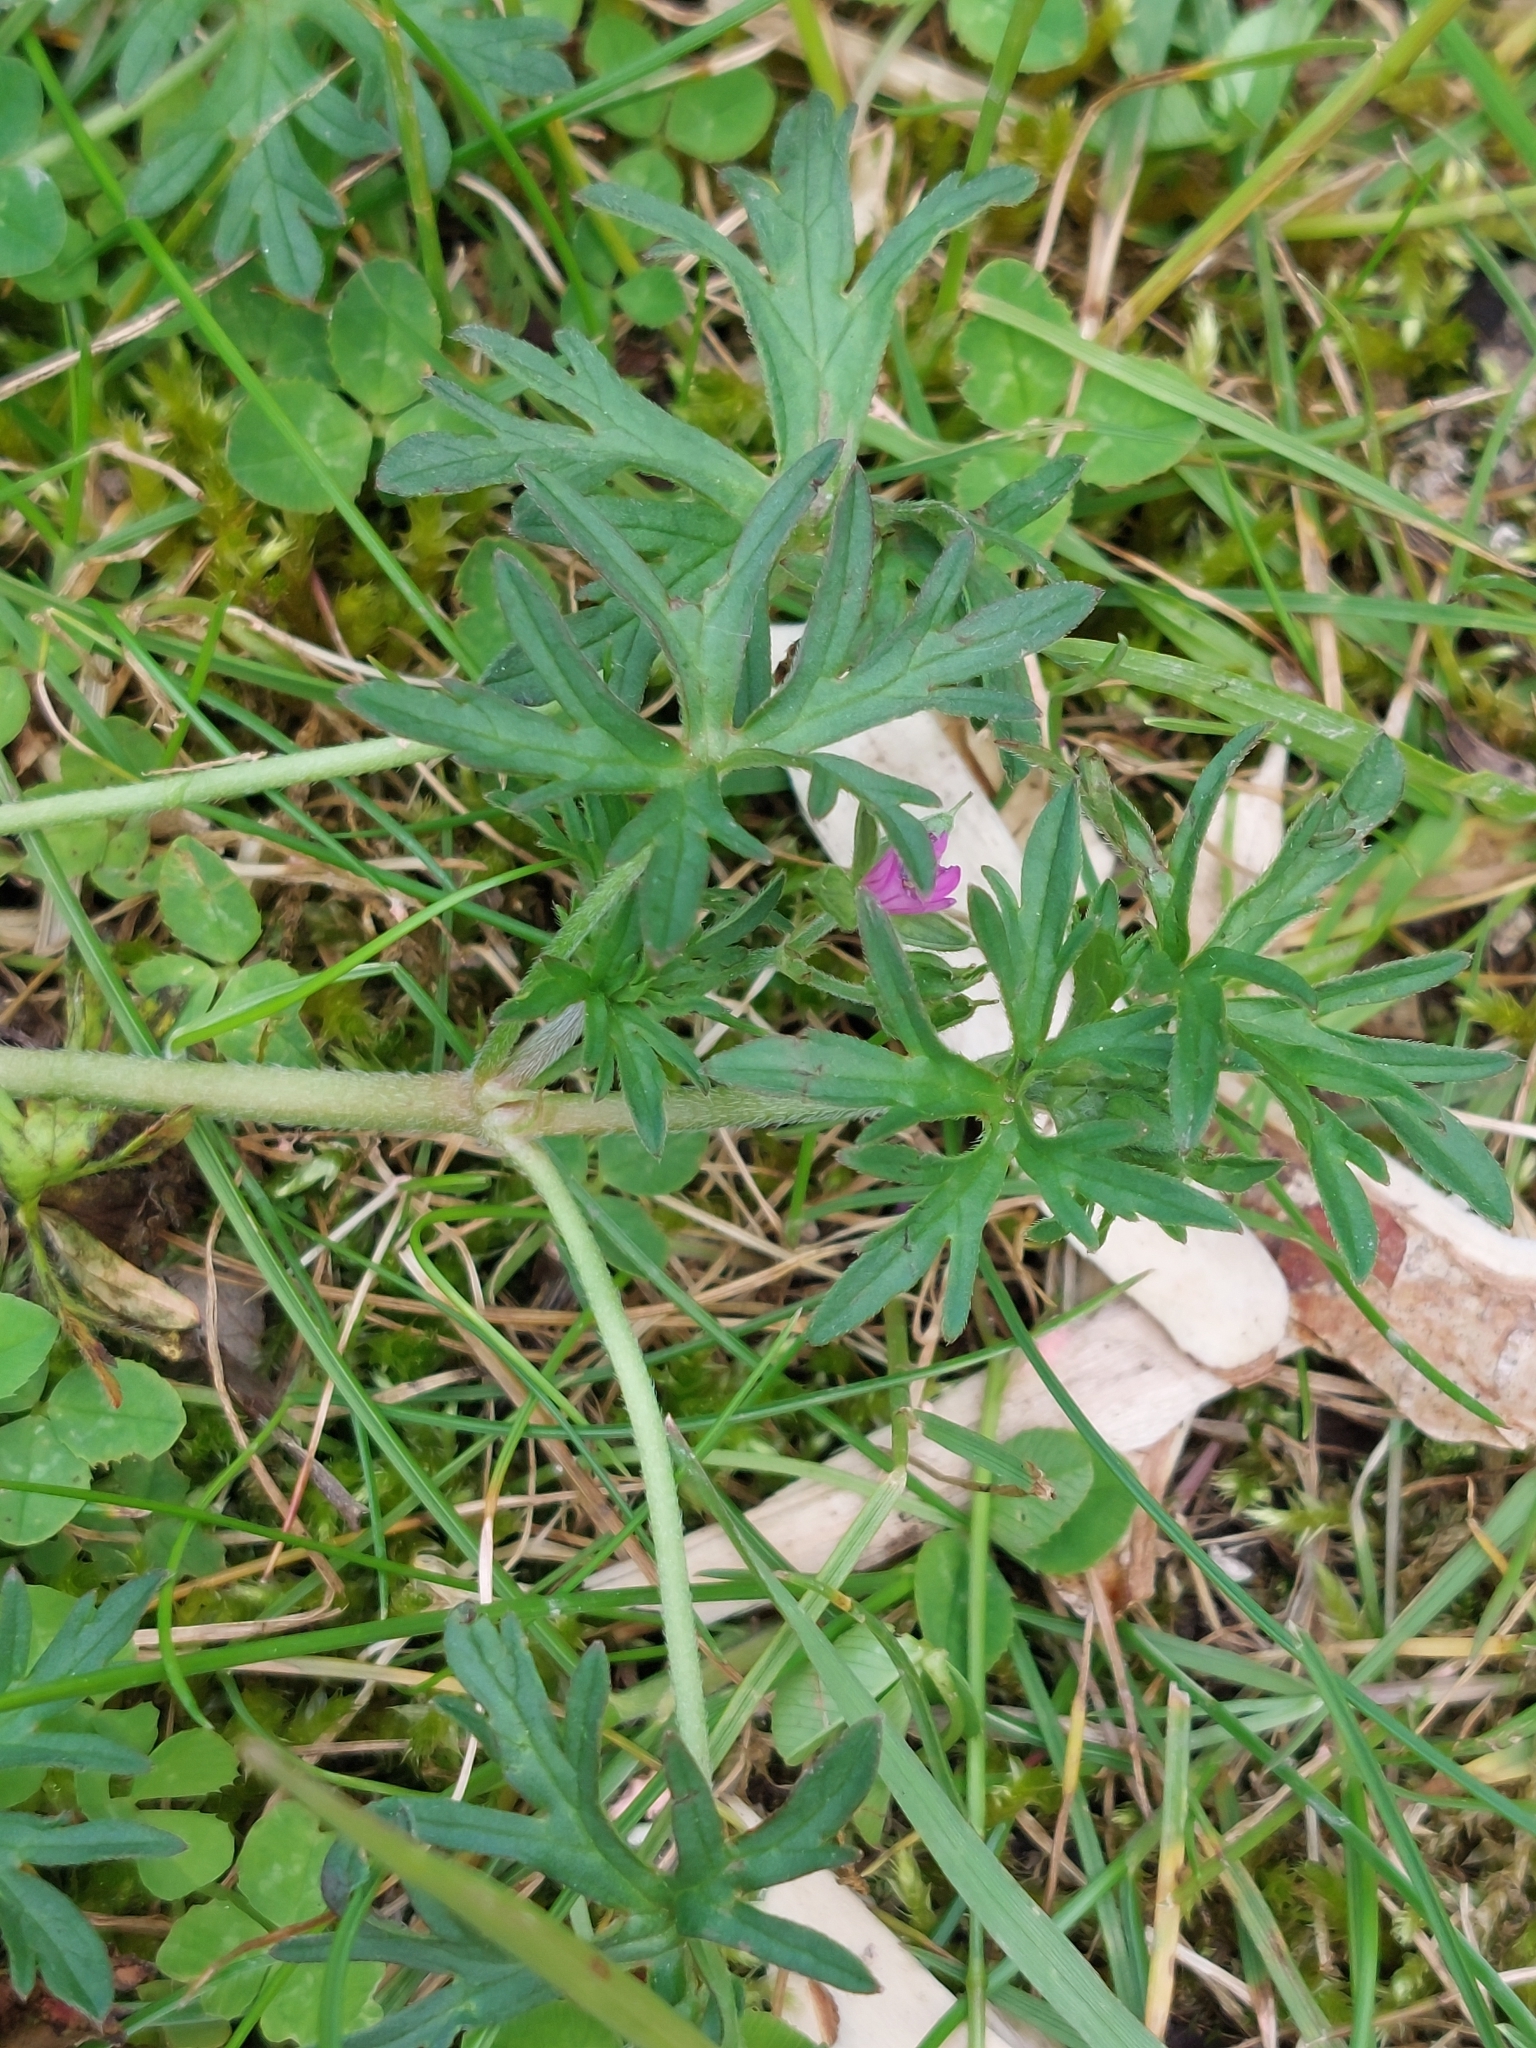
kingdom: Plantae
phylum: Tracheophyta
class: Magnoliopsida
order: Geraniales
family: Geraniaceae
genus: Geranium
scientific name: Geranium dissectum
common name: Cut-leaved crane's-bill
